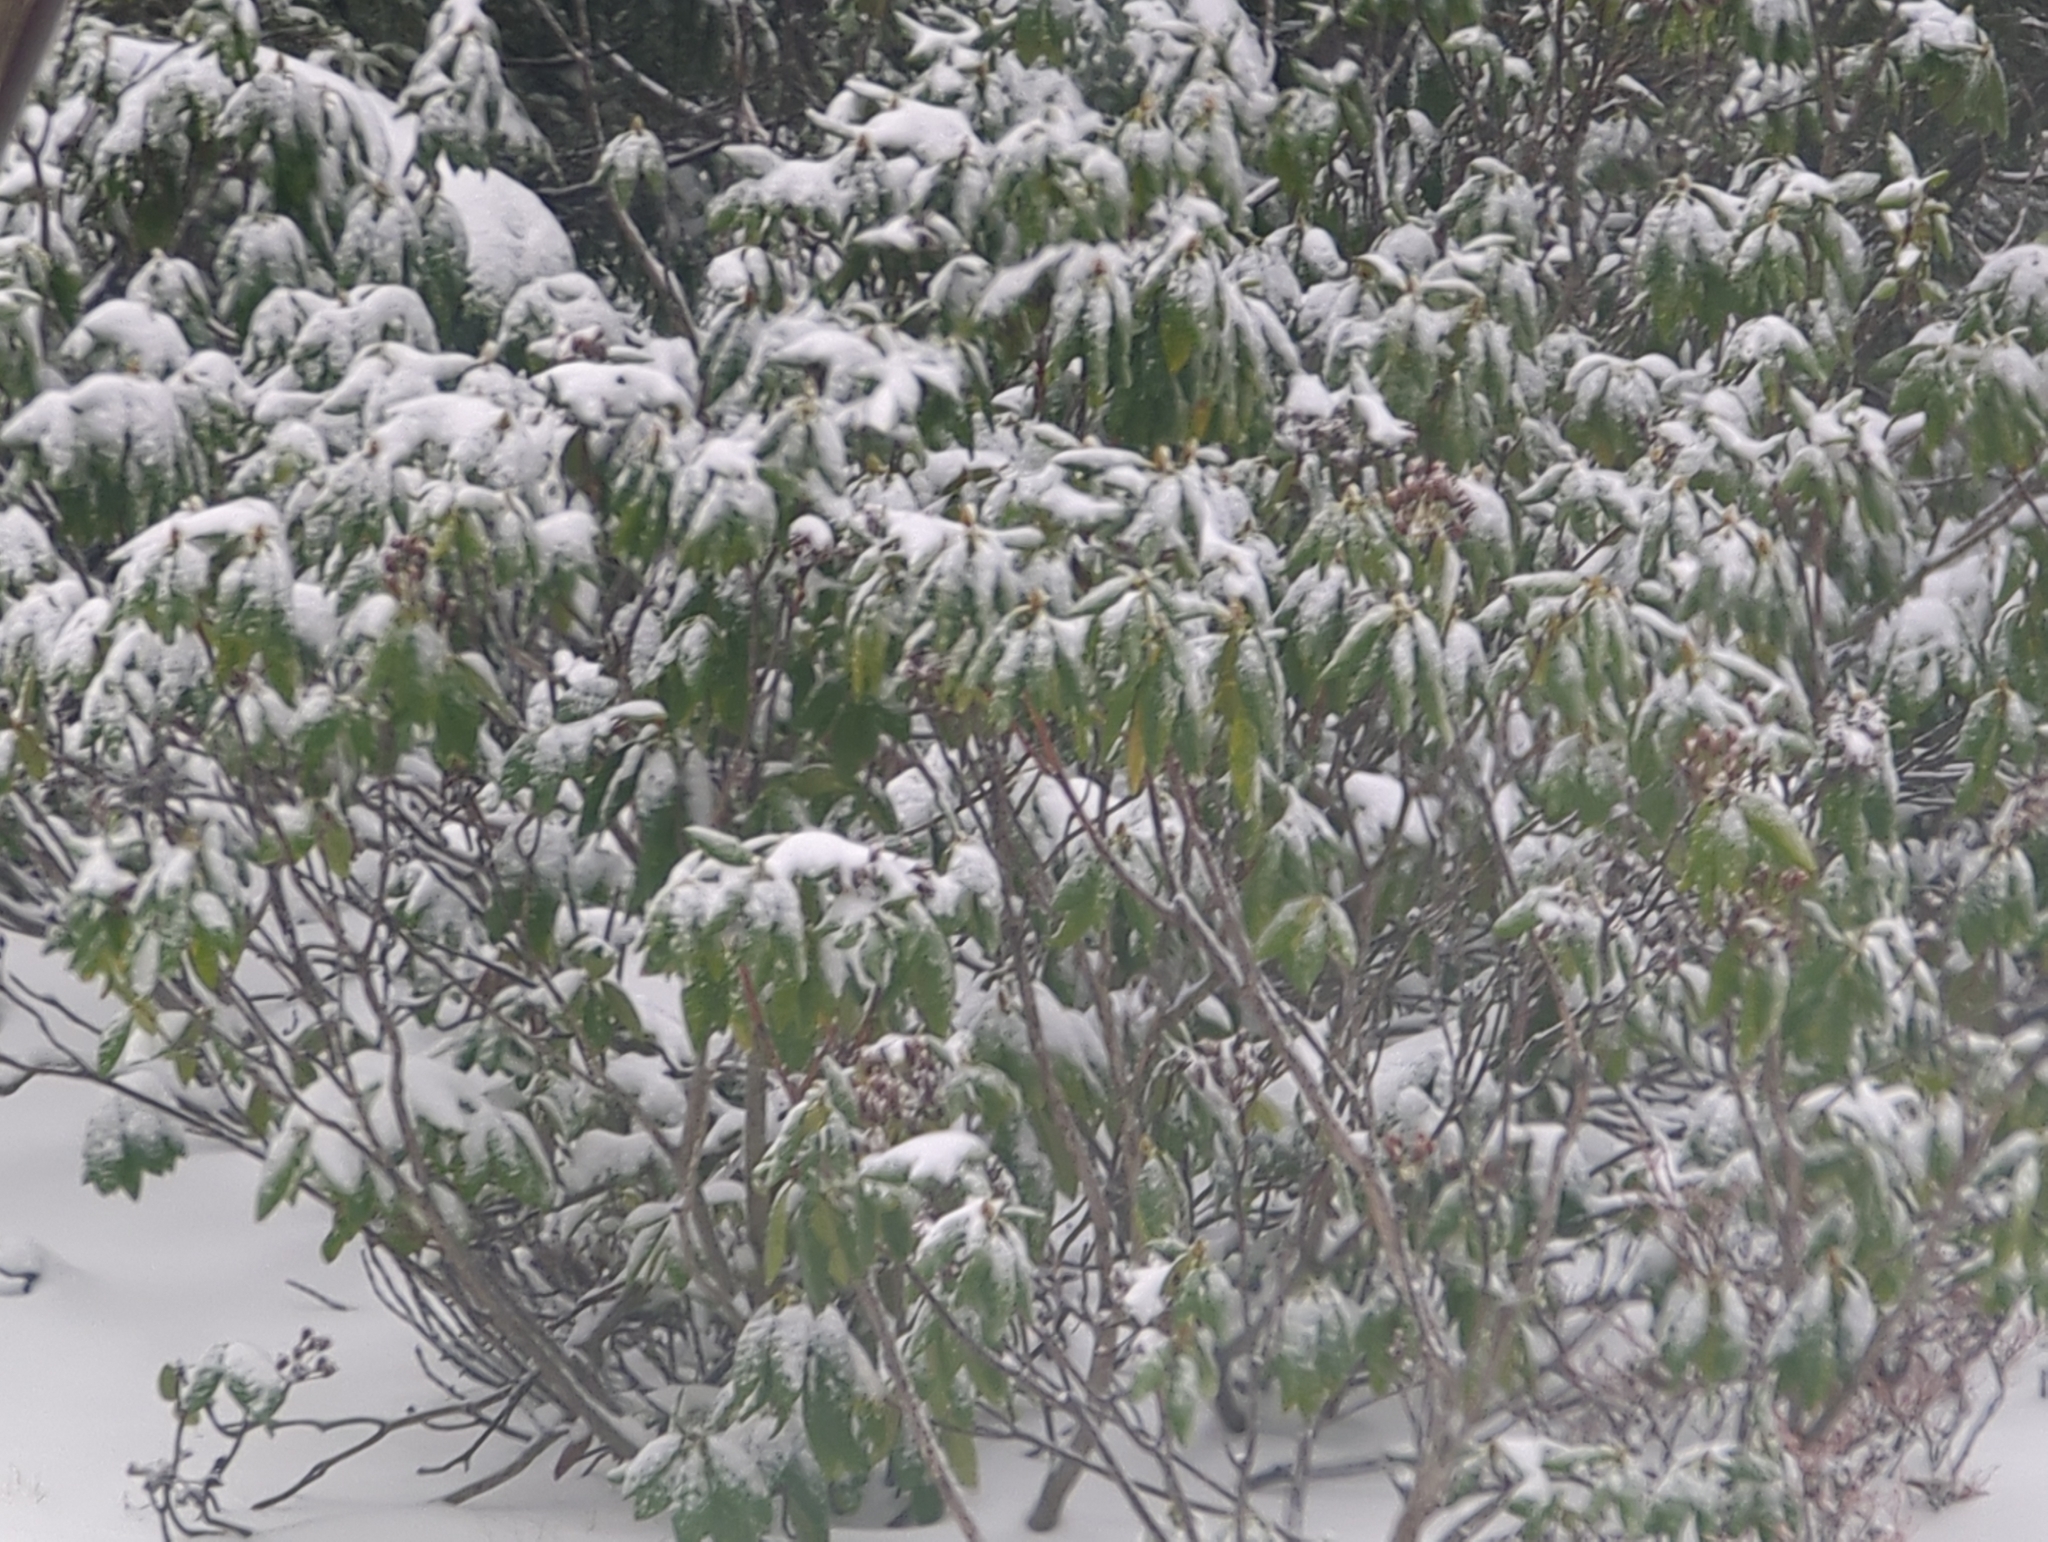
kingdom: Plantae
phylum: Tracheophyta
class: Magnoliopsida
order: Ericales
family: Ericaceae
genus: Rhododendron
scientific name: Rhododendron macrophyllum
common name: California rose bay
